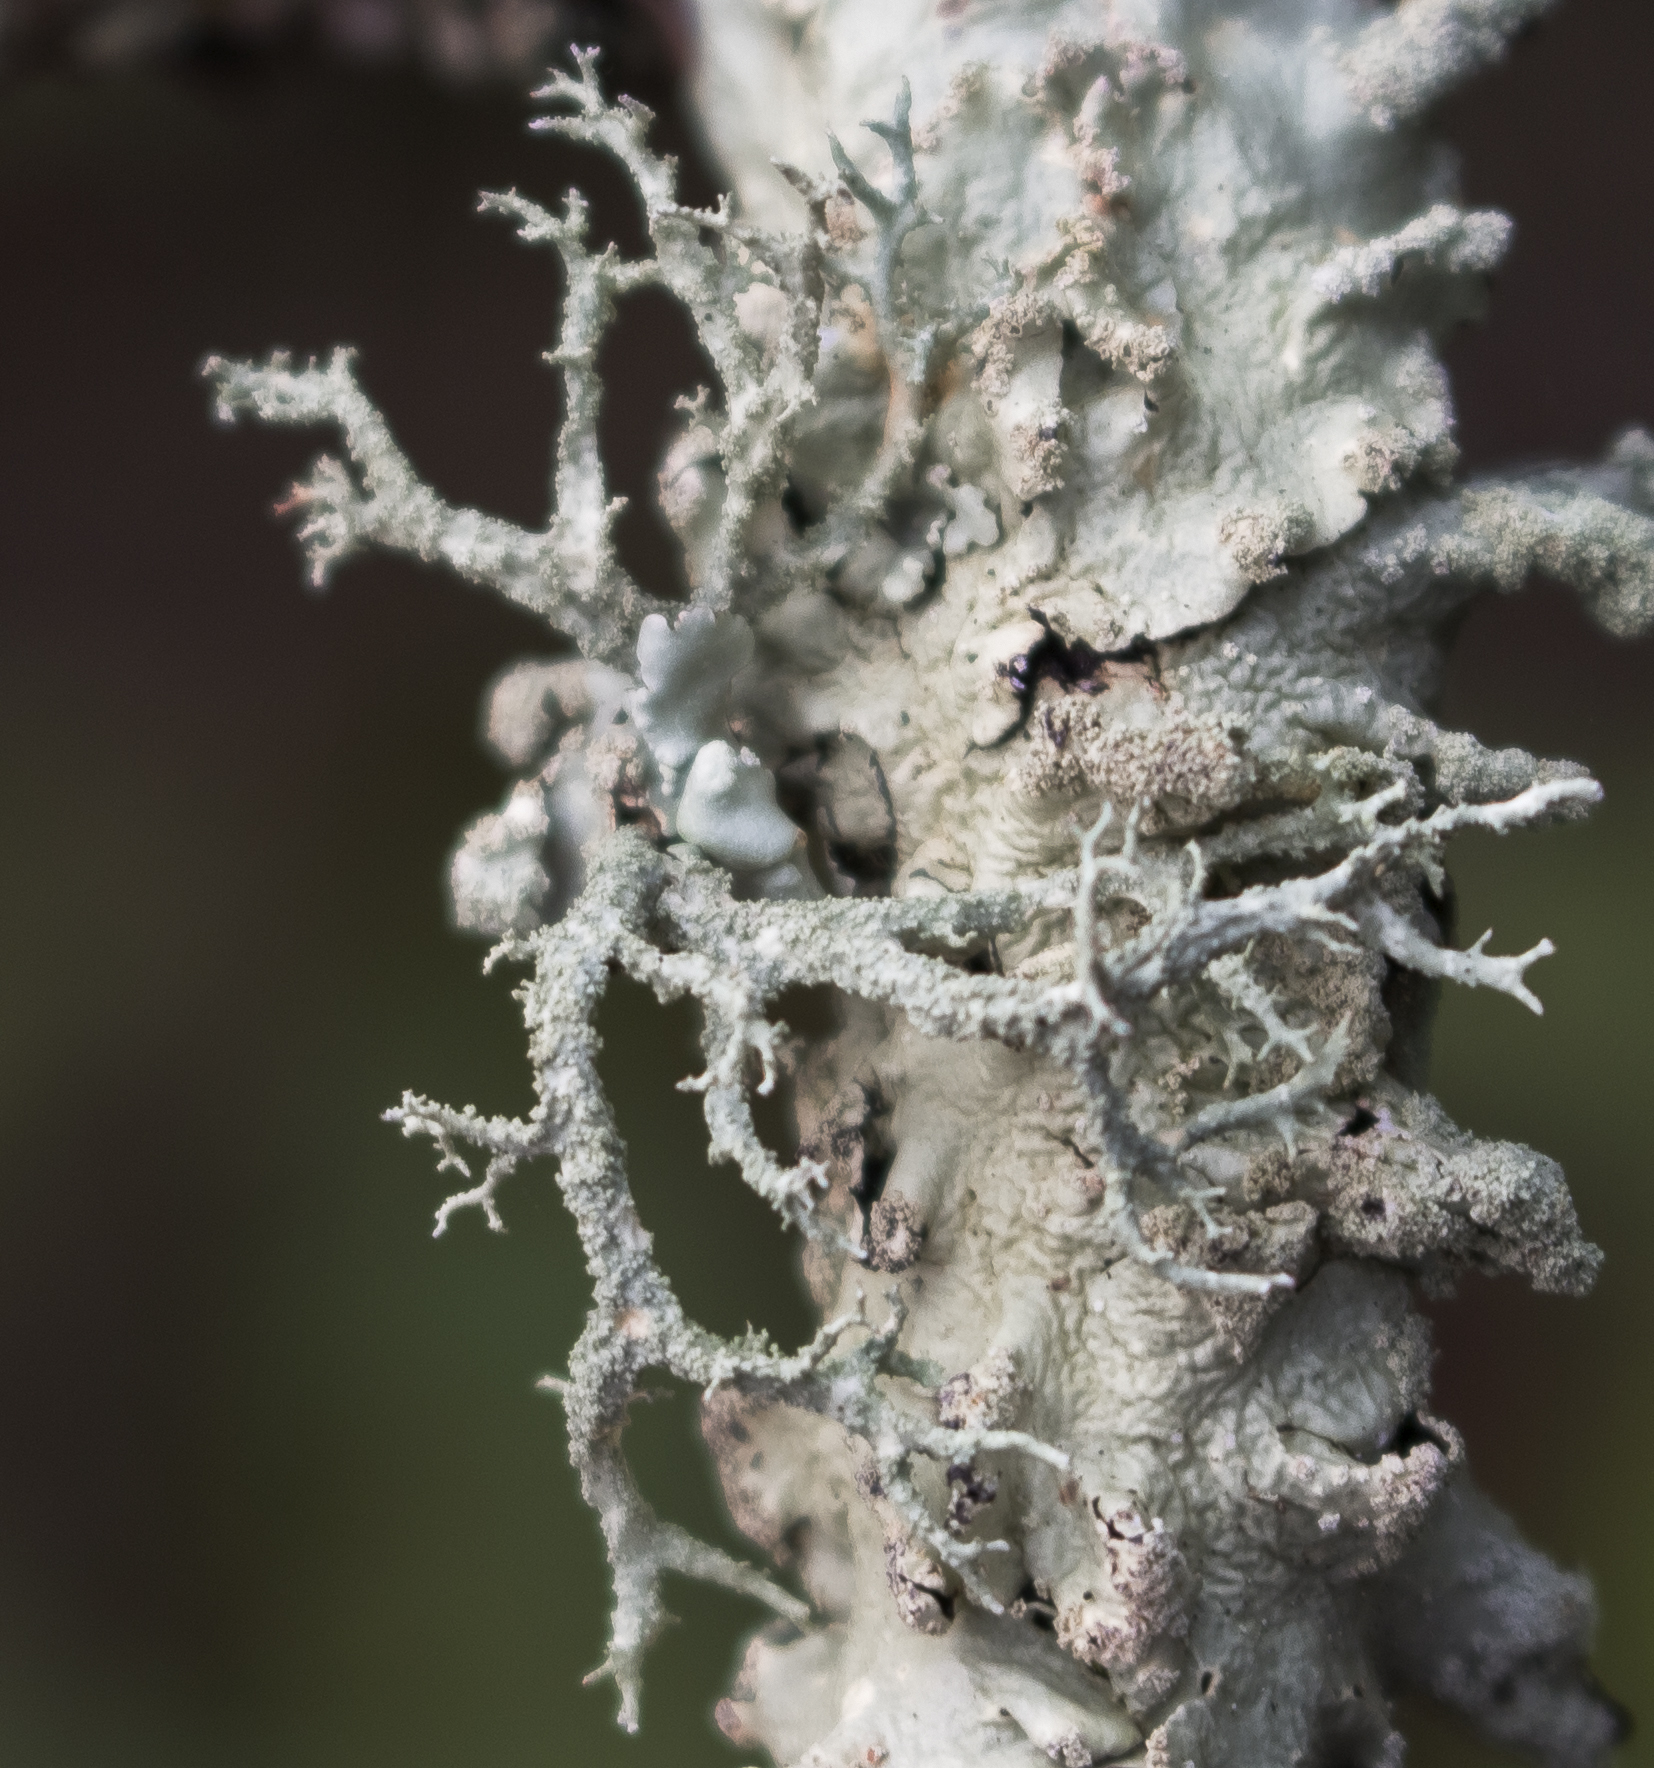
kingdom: Fungi
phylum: Ascomycota
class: Lecanoromycetes
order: Lecanorales
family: Parmeliaceae
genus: Evernia
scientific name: Evernia mesomorpha
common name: Boreal oak moss lichen
